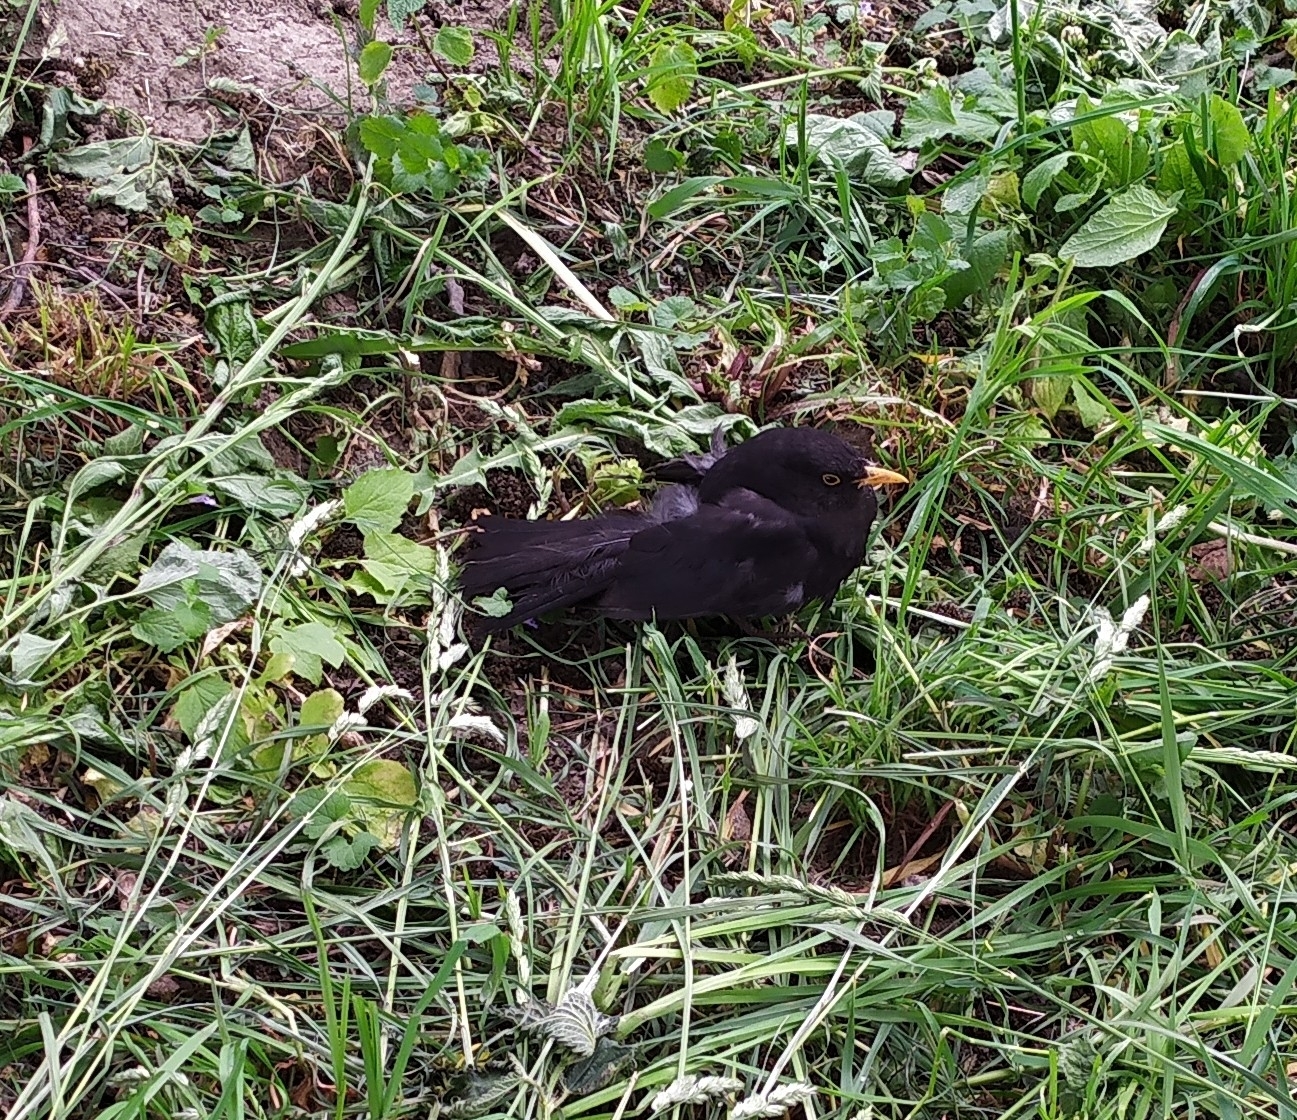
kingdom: Animalia
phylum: Chordata
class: Aves
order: Passeriformes
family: Turdidae
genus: Turdus
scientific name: Turdus merula
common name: Common blackbird
